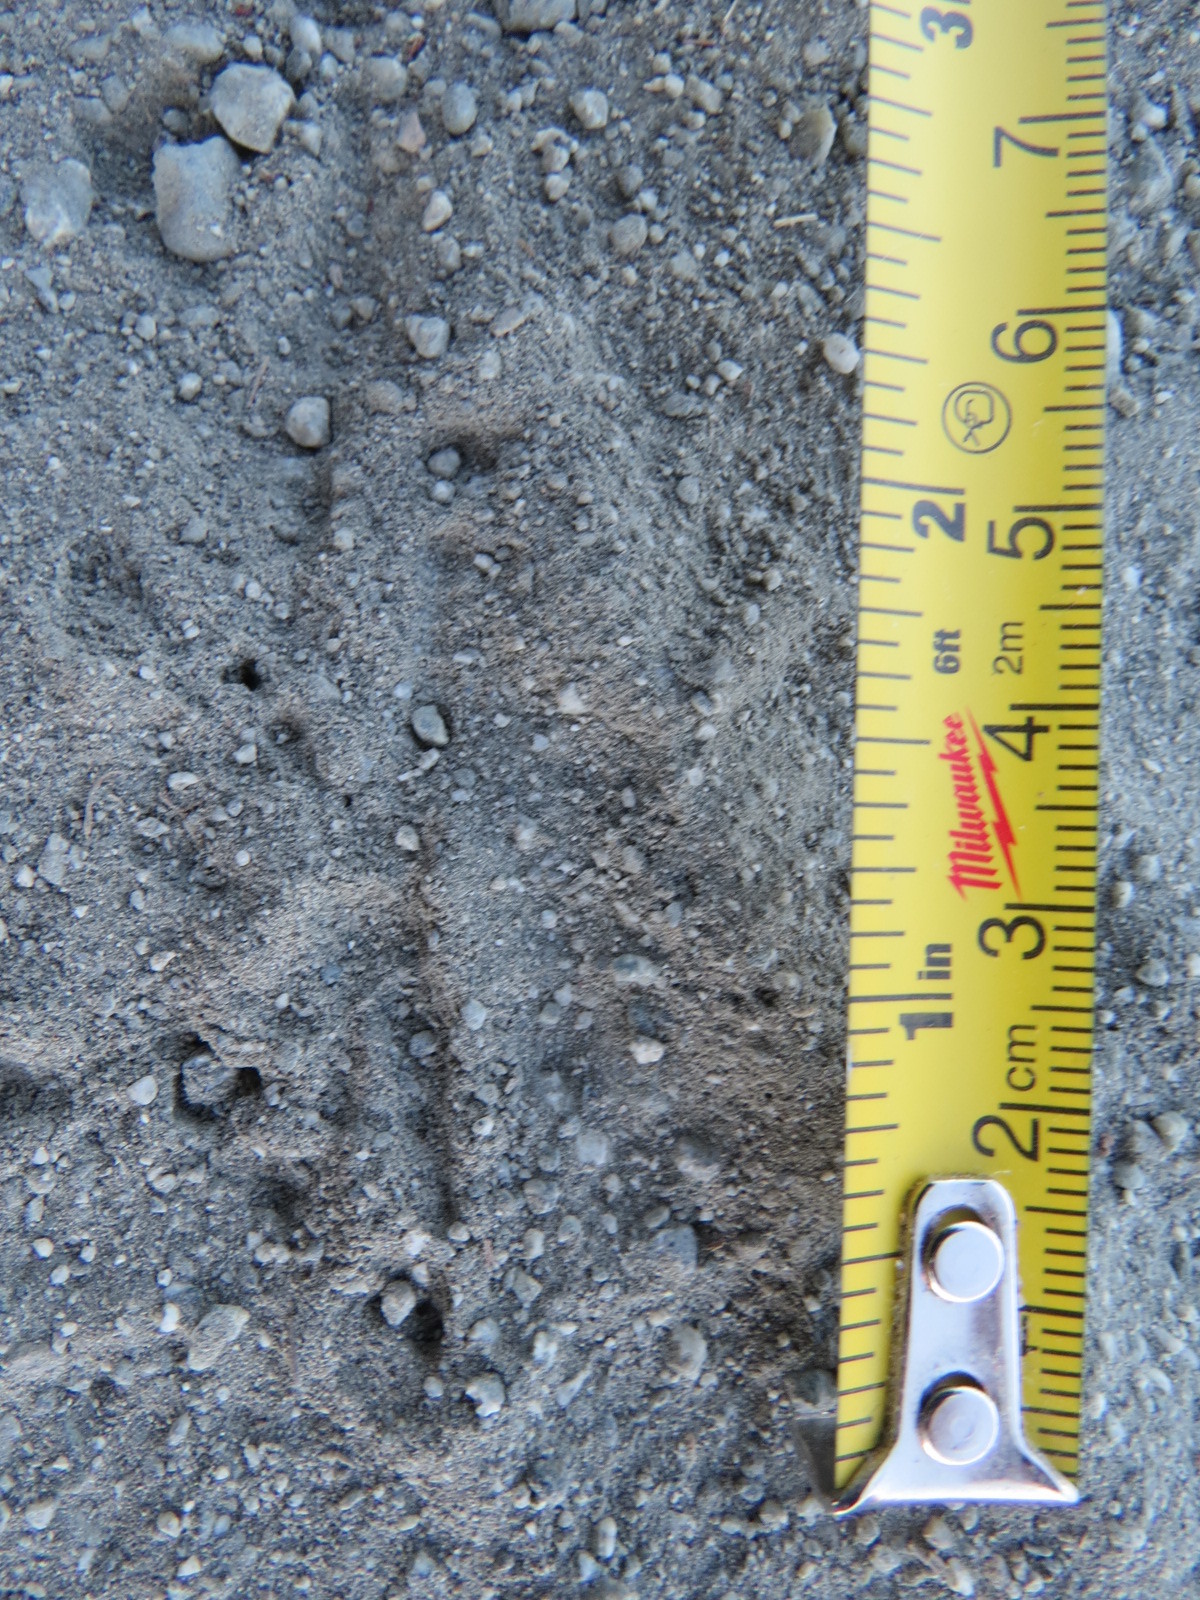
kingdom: Animalia
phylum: Chordata
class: Aves
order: Piciformes
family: Picidae
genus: Colaptes
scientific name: Colaptes auratus
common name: Northern flicker
